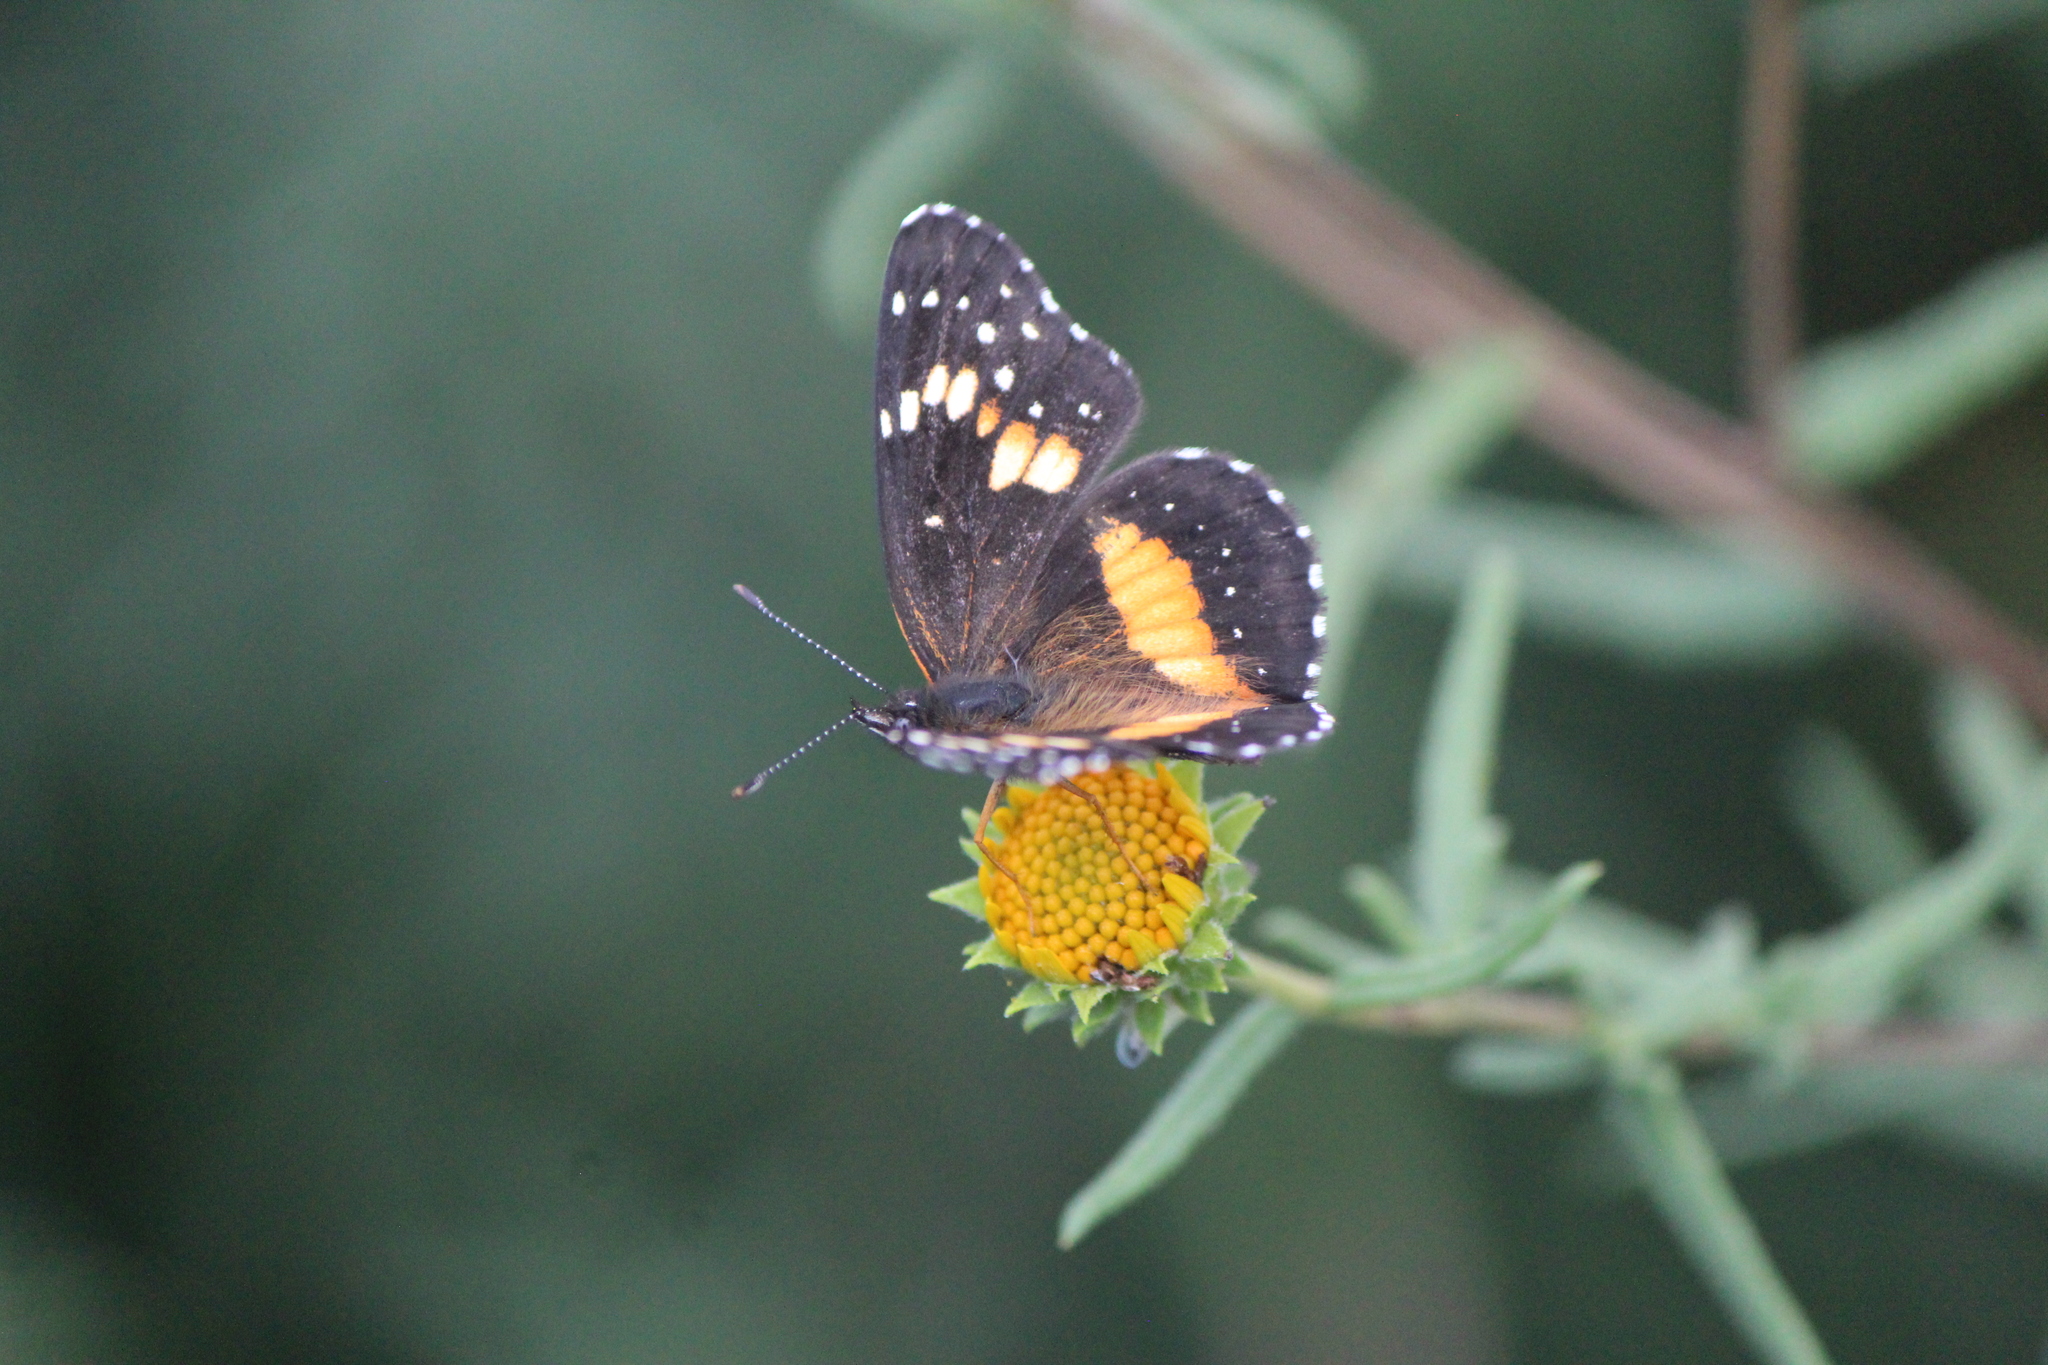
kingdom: Animalia
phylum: Arthropoda
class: Insecta
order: Lepidoptera
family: Nymphalidae
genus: Chlosyne
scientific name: Chlosyne lacinia
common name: Bordered patch
